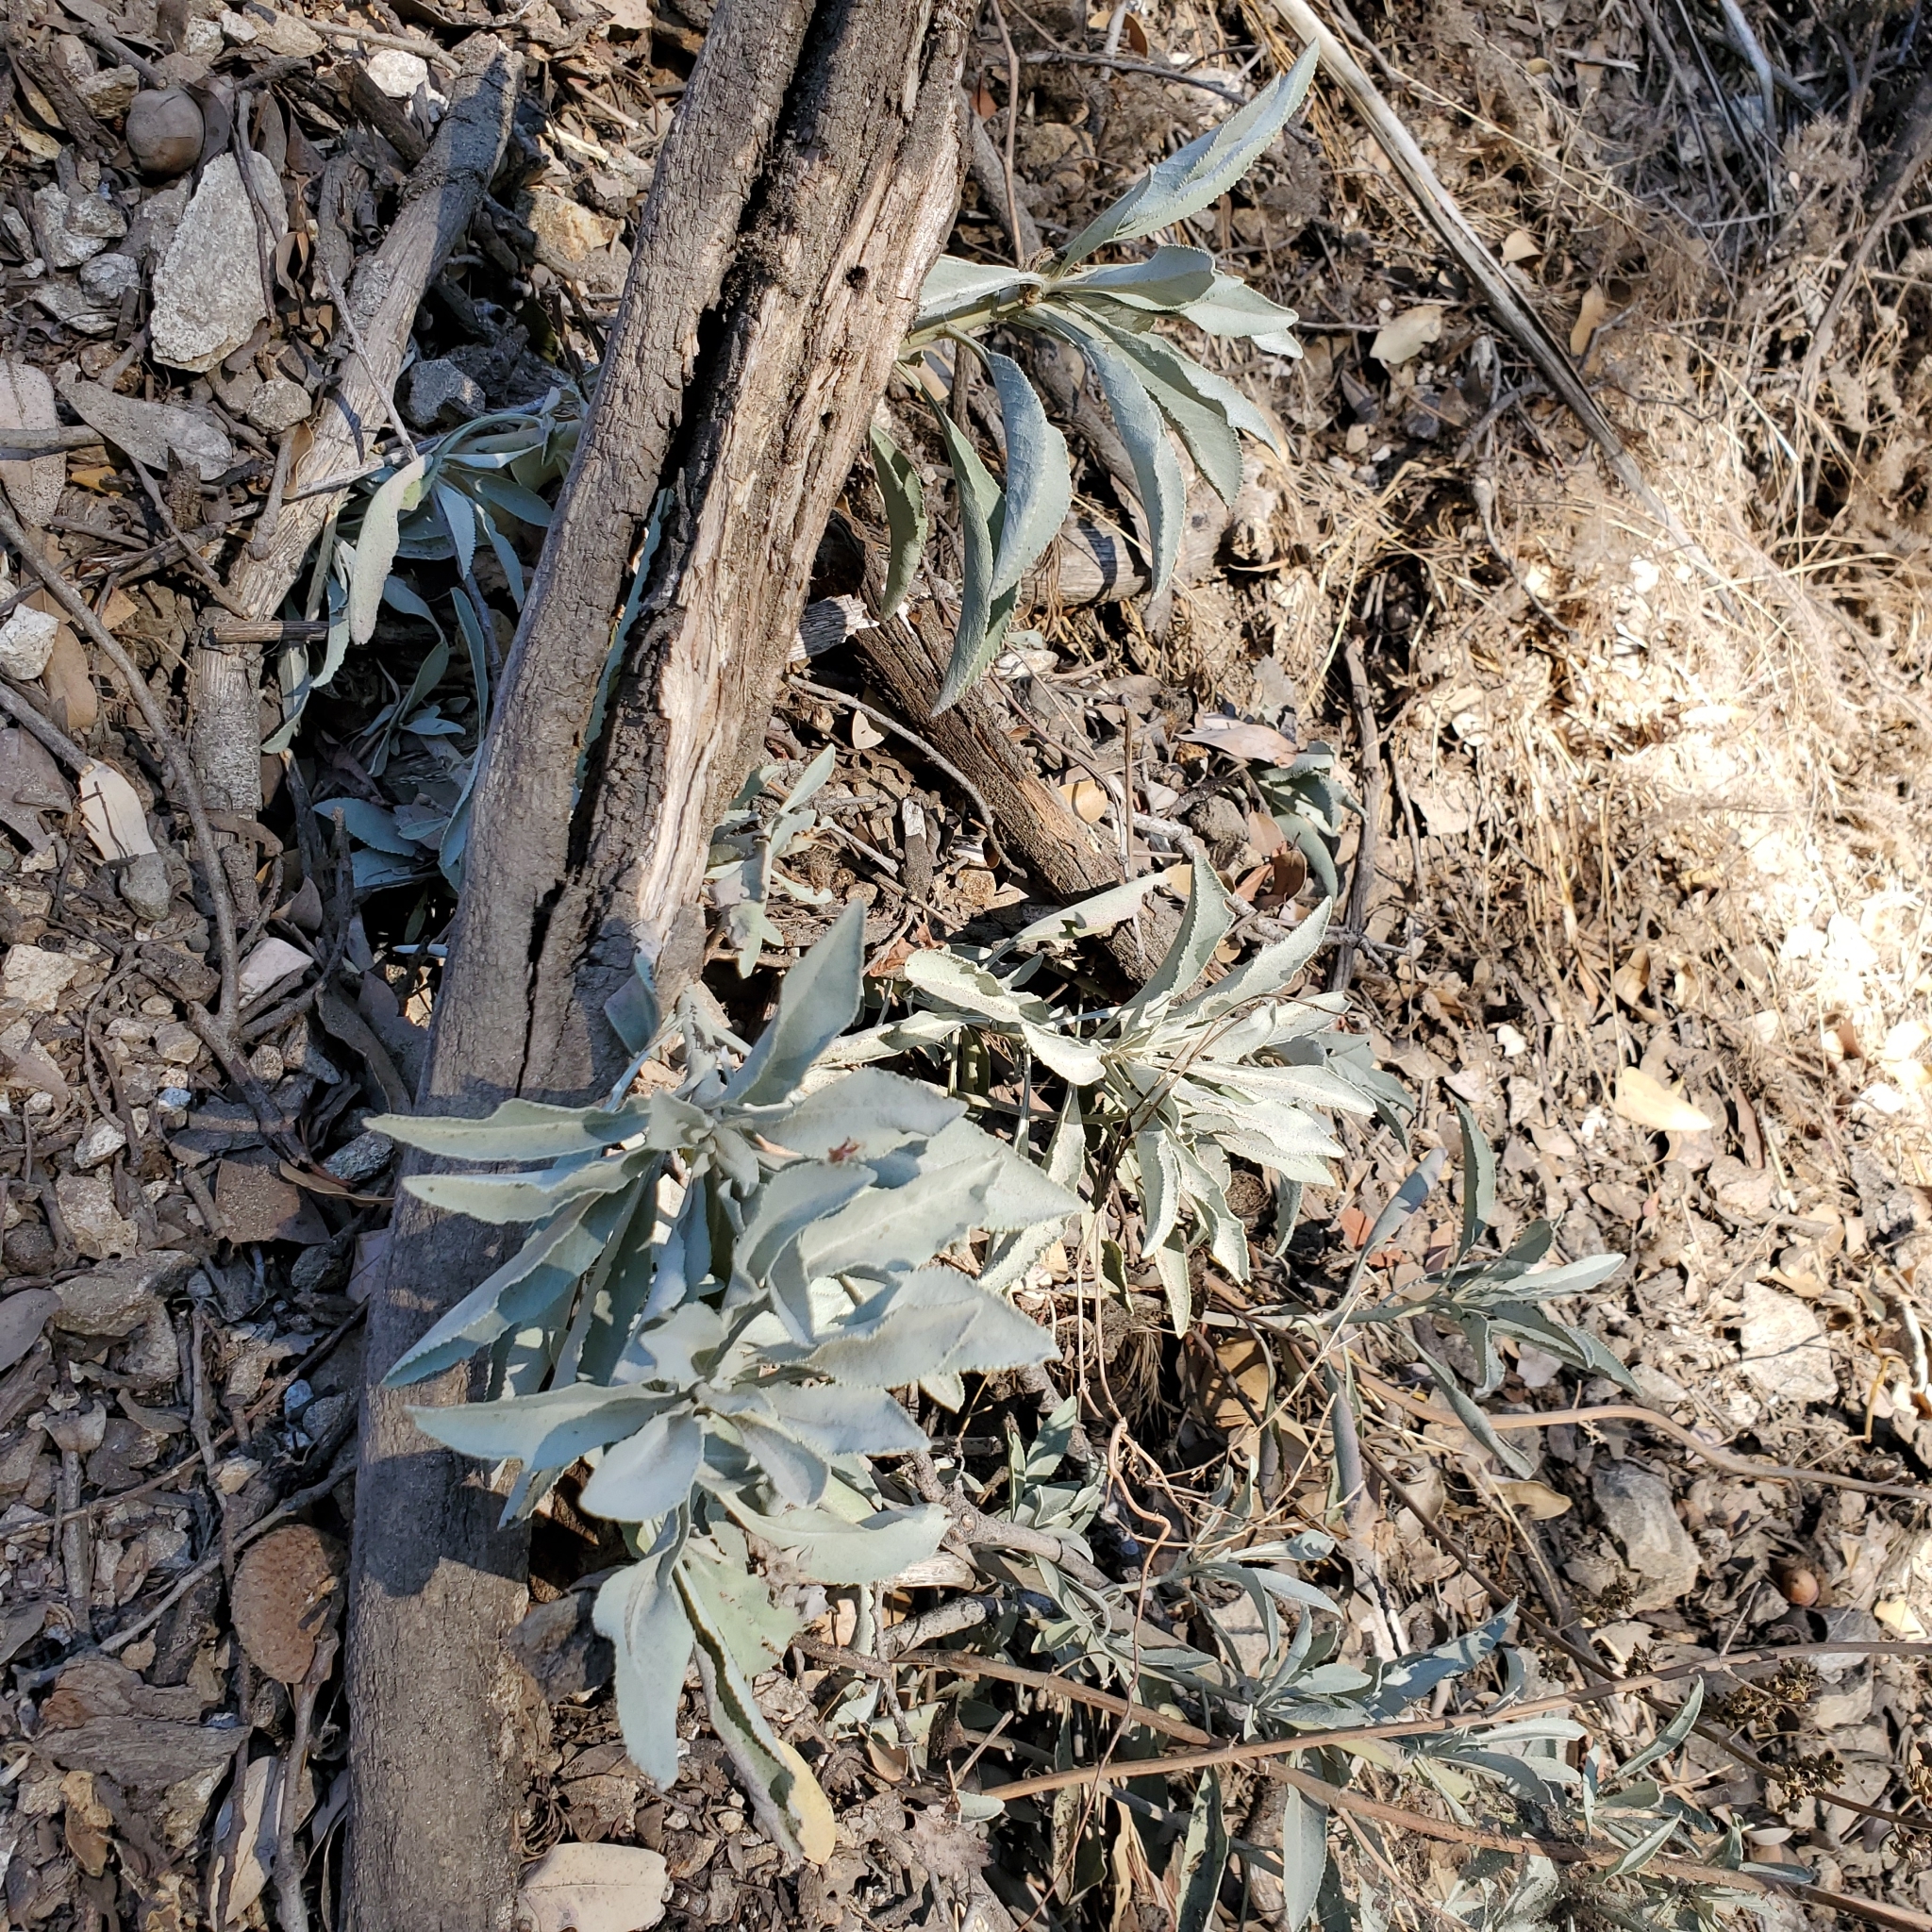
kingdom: Plantae
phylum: Tracheophyta
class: Magnoliopsida
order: Lamiales
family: Lamiaceae
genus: Salvia
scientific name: Salvia apiana
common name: White sage
